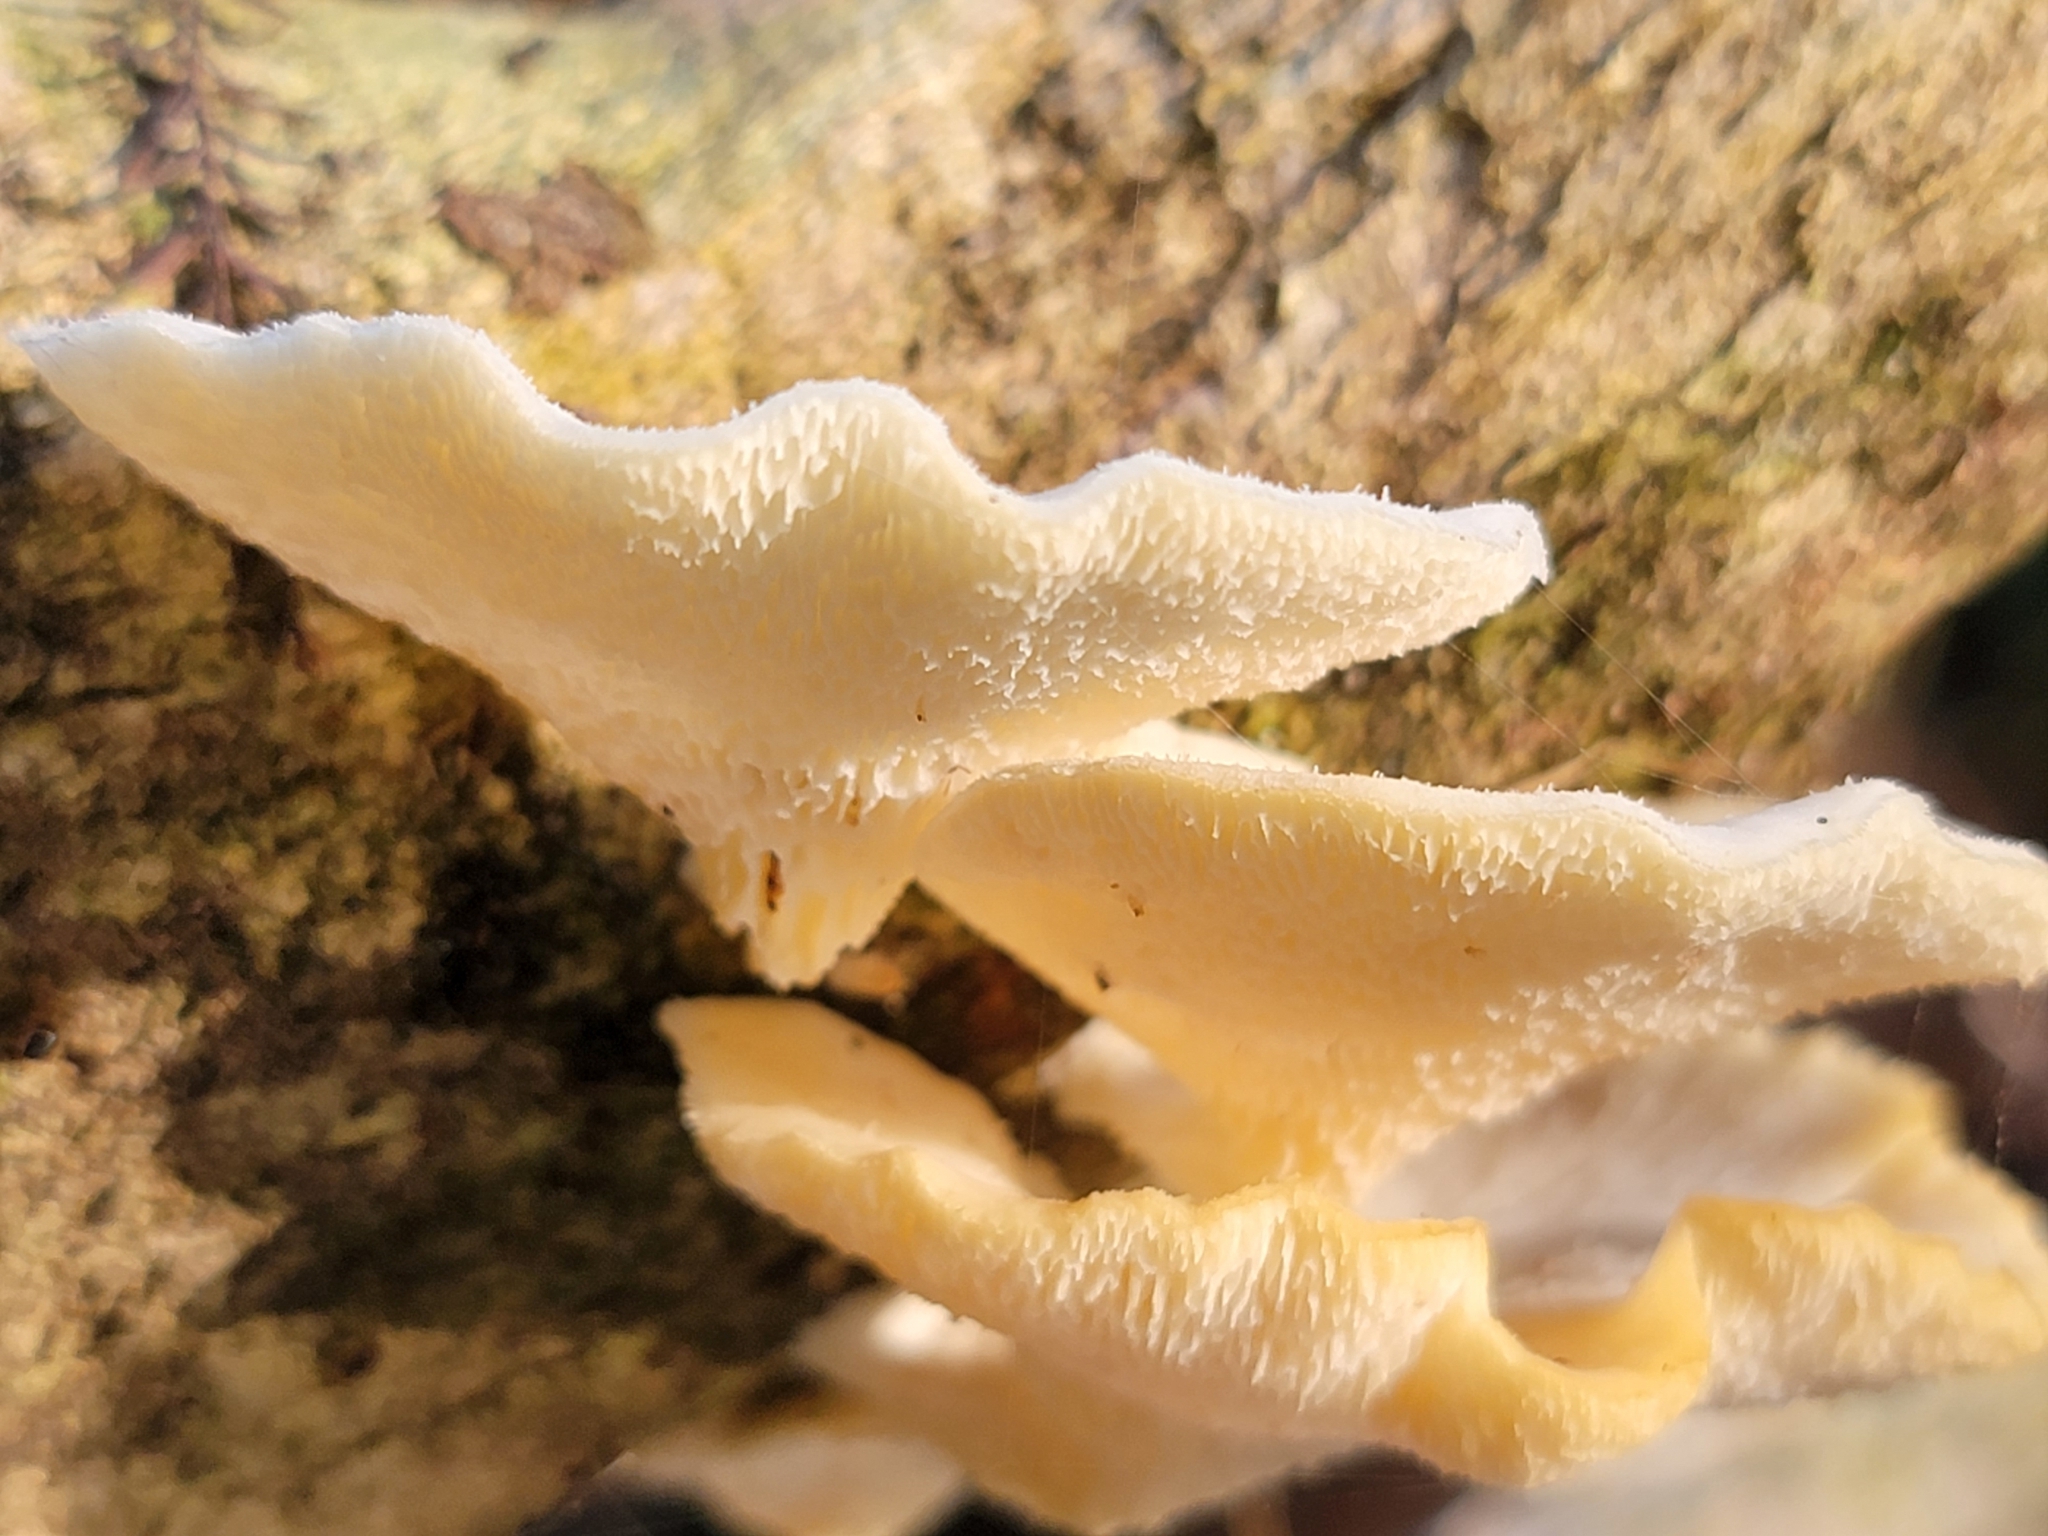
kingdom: Fungi
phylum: Basidiomycota
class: Agaricomycetes
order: Polyporales
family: Polyporaceae
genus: Favolus
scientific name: Favolus tenuiculus
